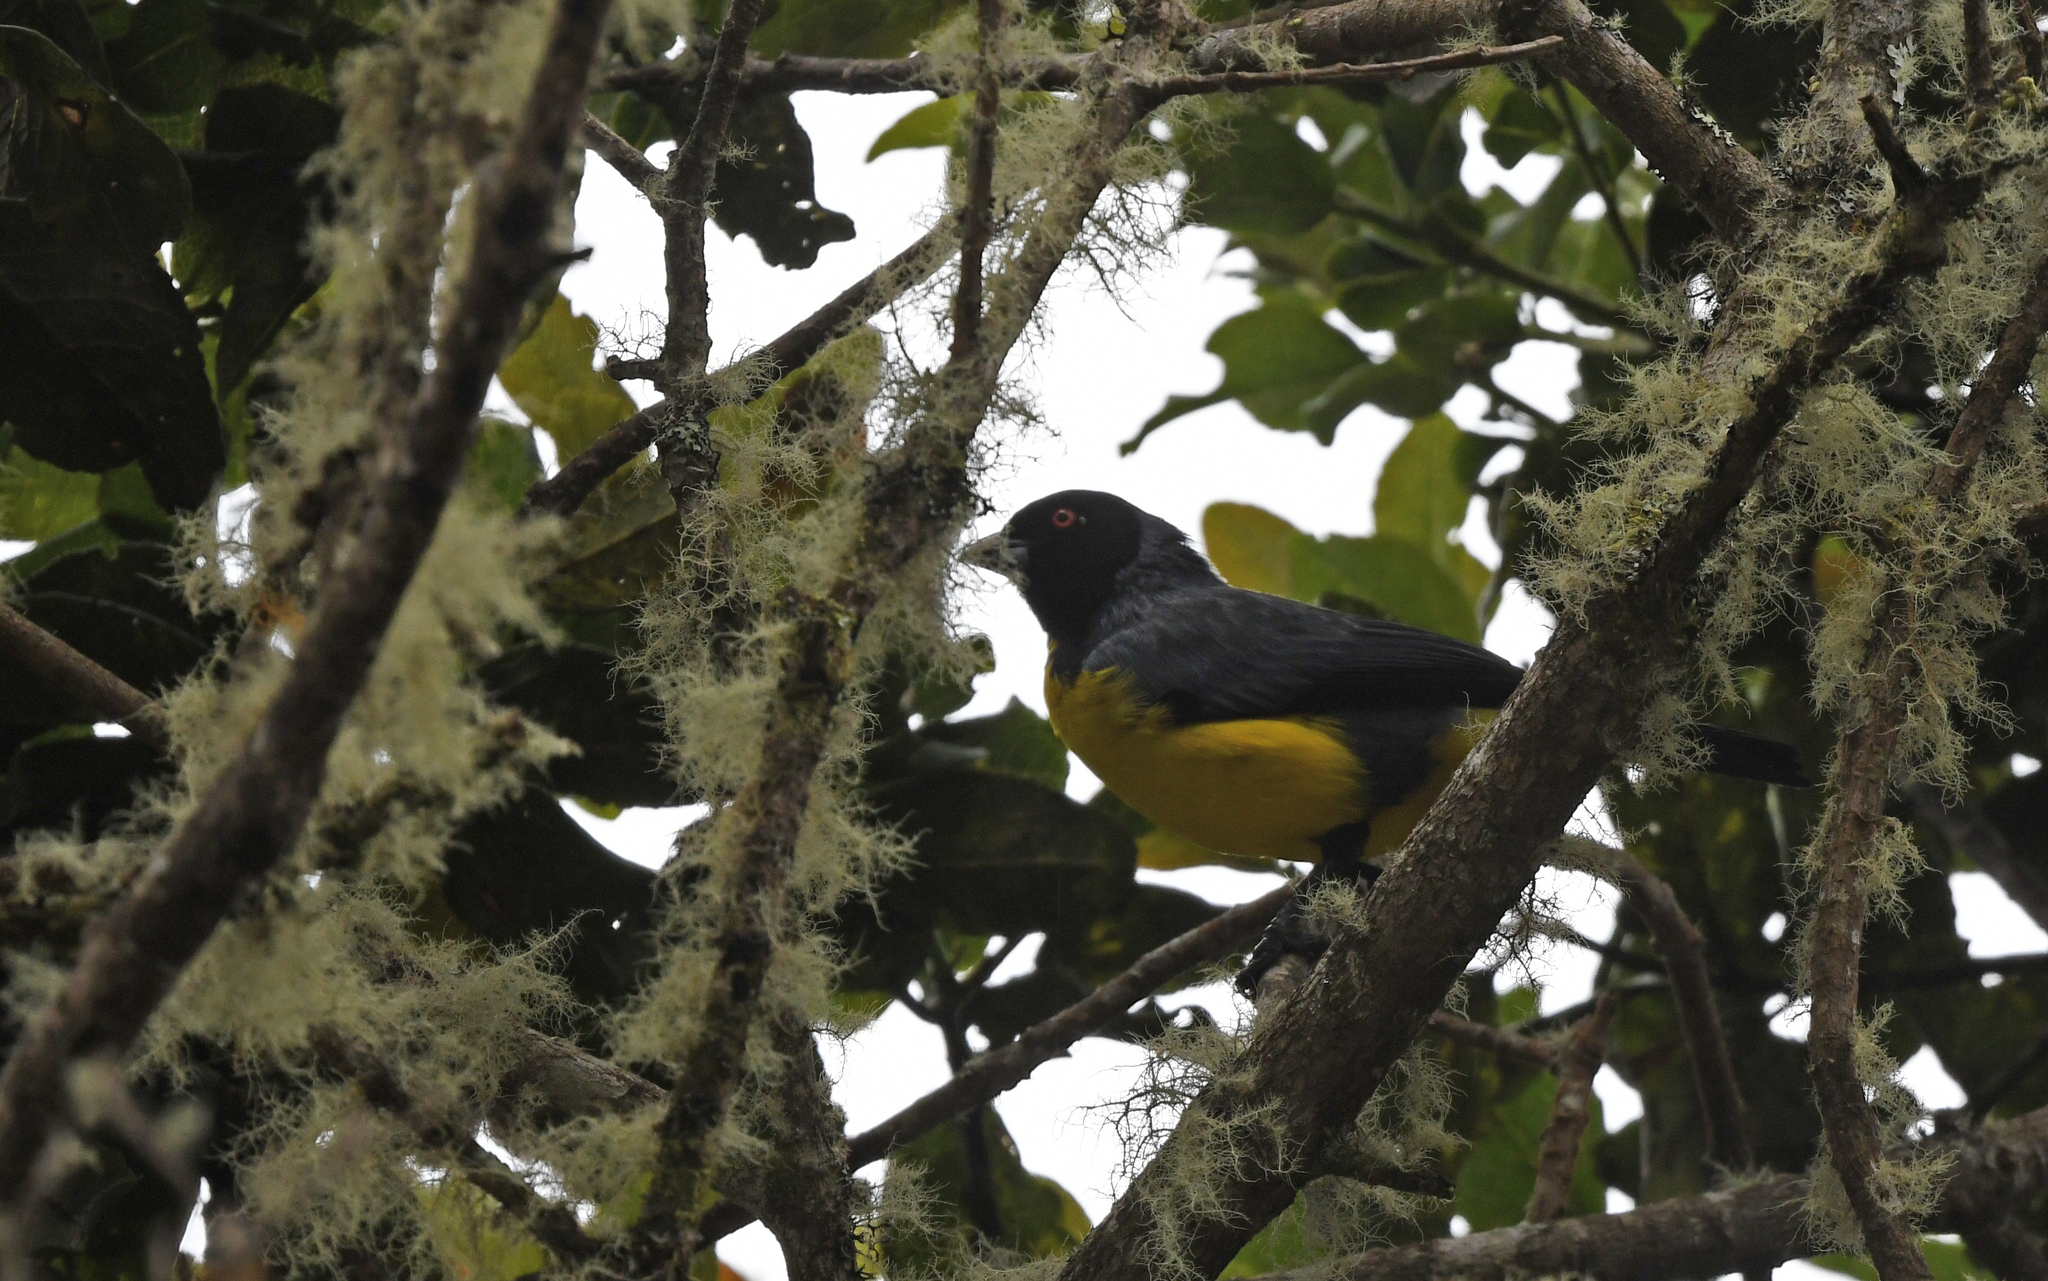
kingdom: Animalia
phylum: Chordata
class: Aves
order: Passeriformes
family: Thraupidae
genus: Buthraupis
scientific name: Buthraupis montana
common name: Hooded mountain tanager
